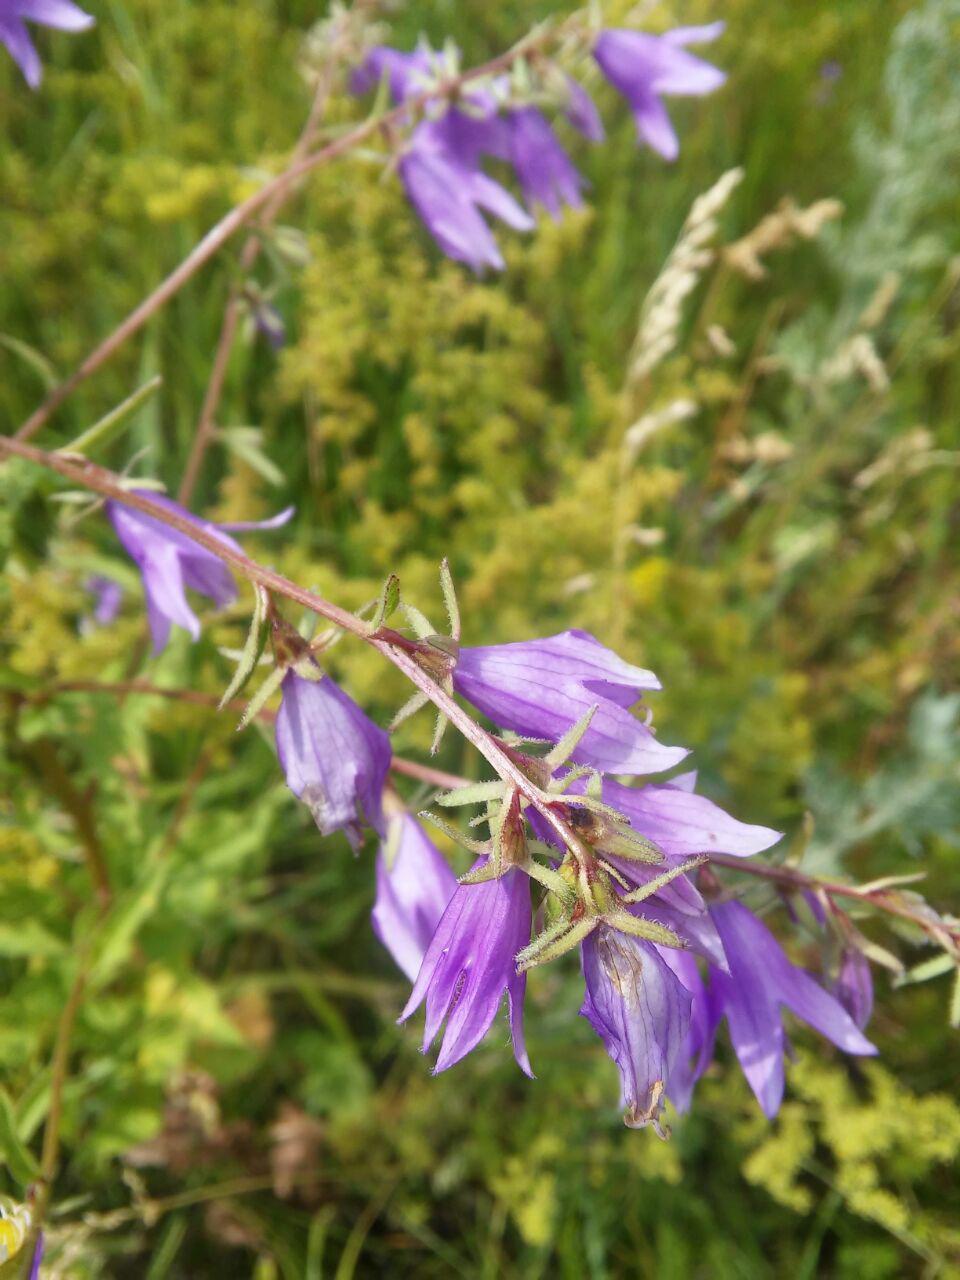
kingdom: Plantae
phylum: Tracheophyta
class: Magnoliopsida
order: Asterales
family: Campanulaceae
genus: Campanula
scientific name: Campanula rapunculoides
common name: Creeping bellflower
